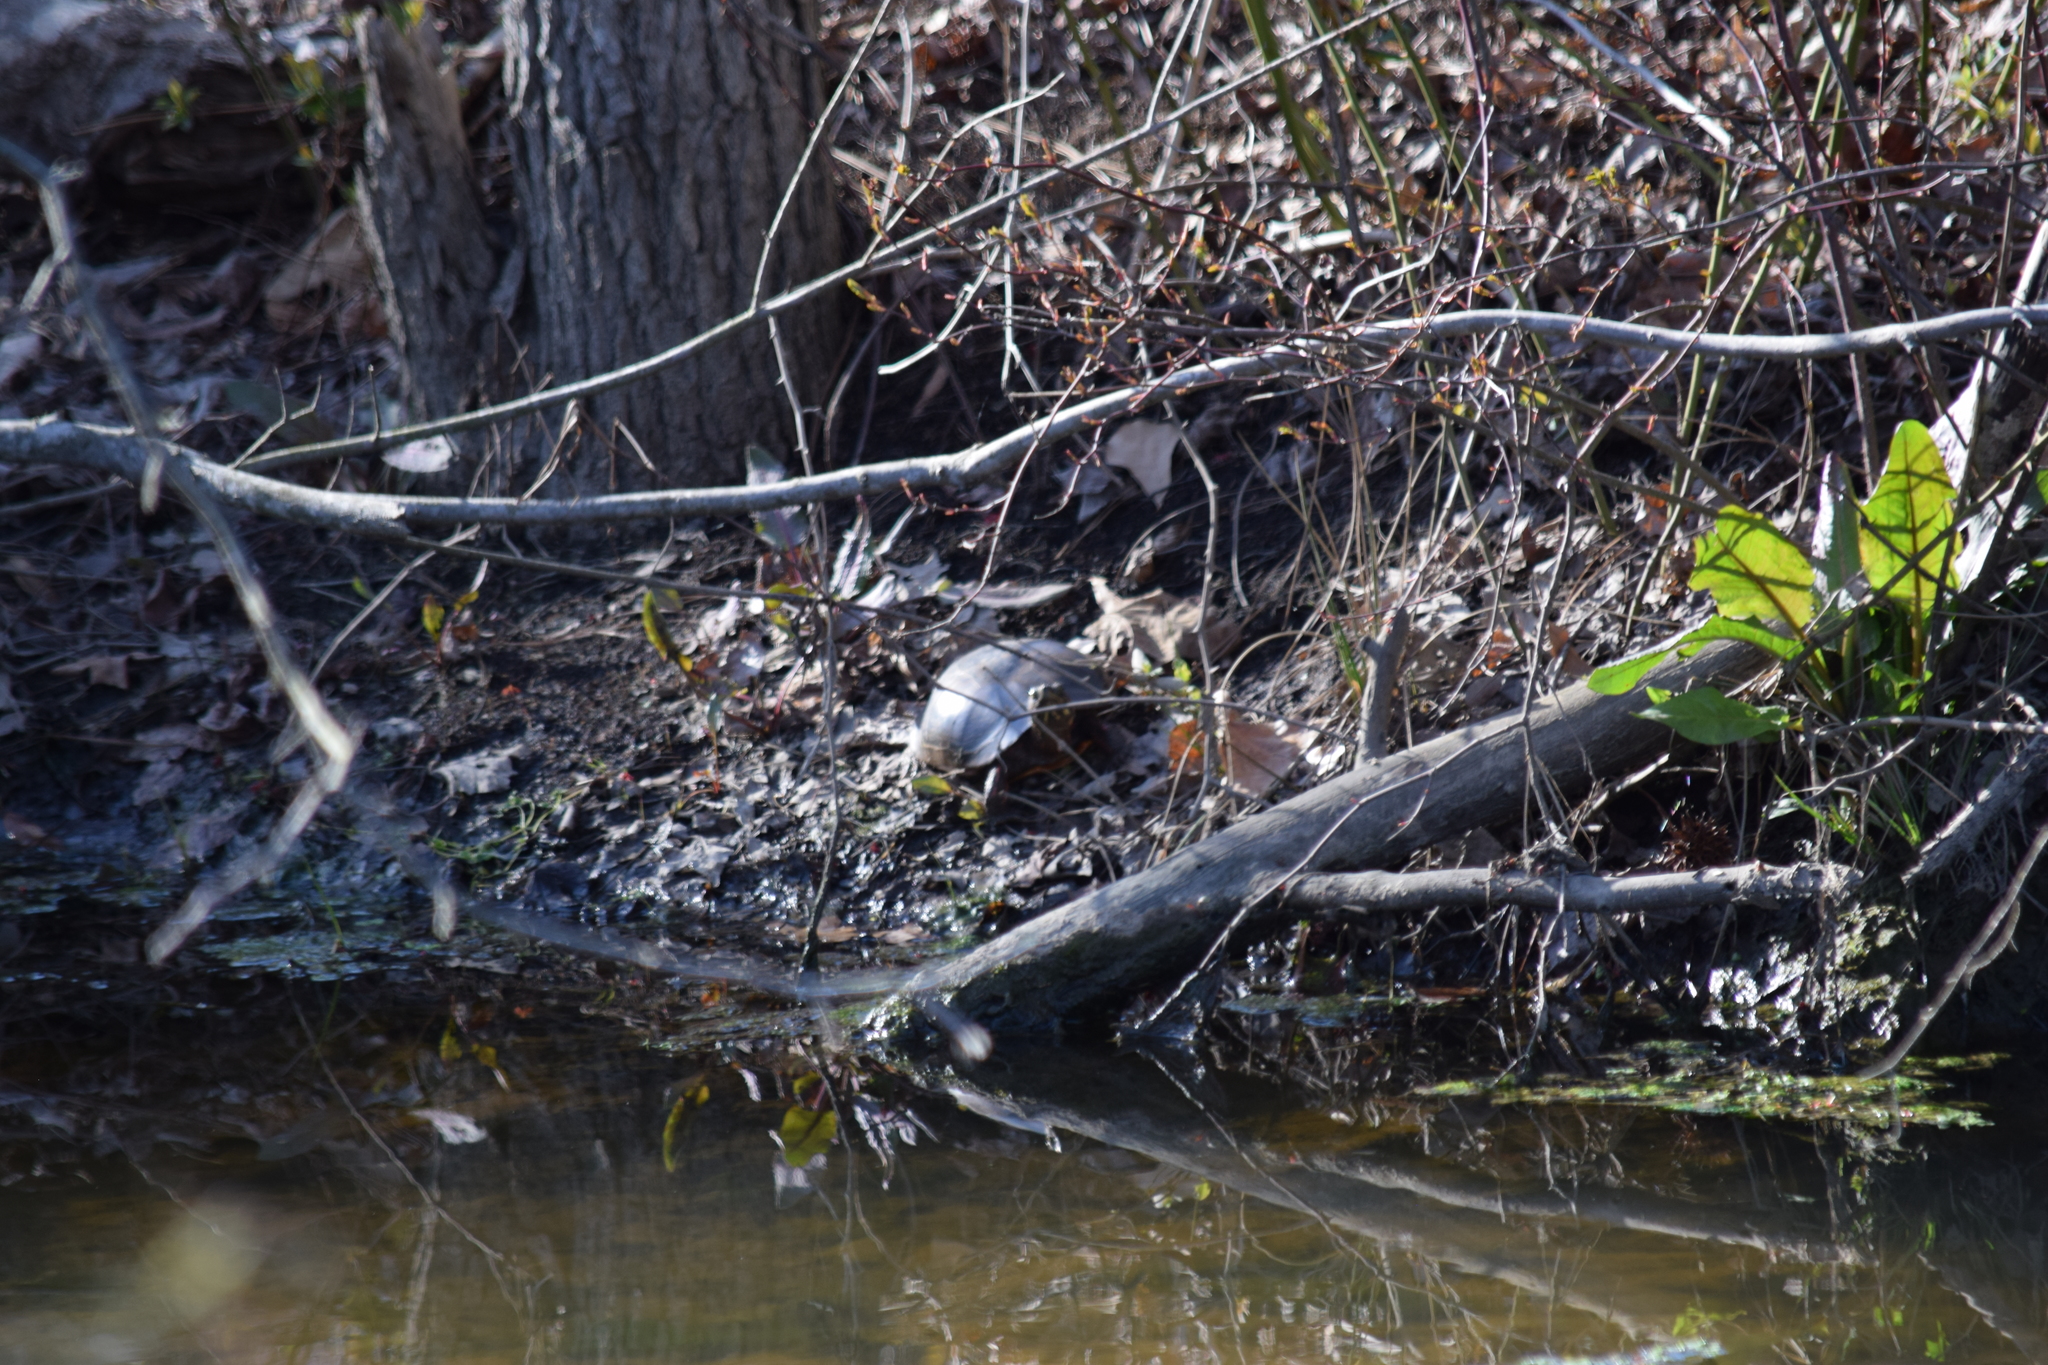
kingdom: Animalia
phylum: Chordata
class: Testudines
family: Emydidae
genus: Chrysemys
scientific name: Chrysemys picta
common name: Painted turtle
